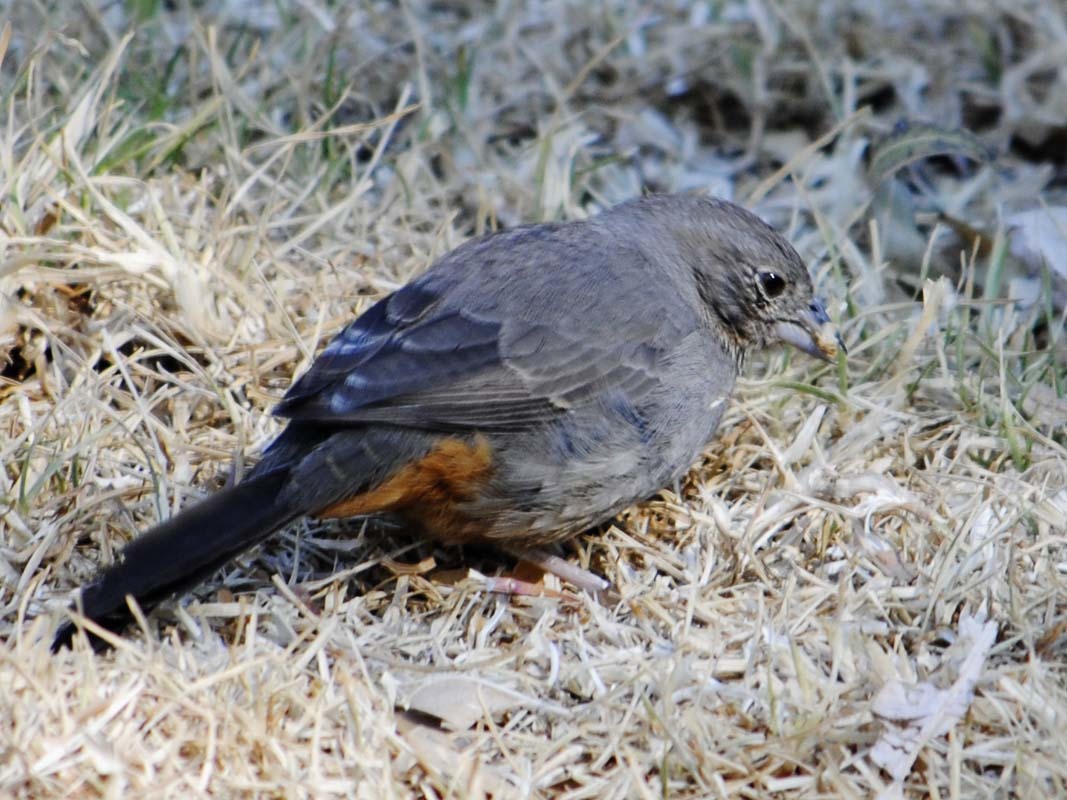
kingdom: Animalia
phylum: Chordata
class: Aves
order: Passeriformes
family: Passerellidae
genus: Melozone
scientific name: Melozone fusca
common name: Canyon towhee
